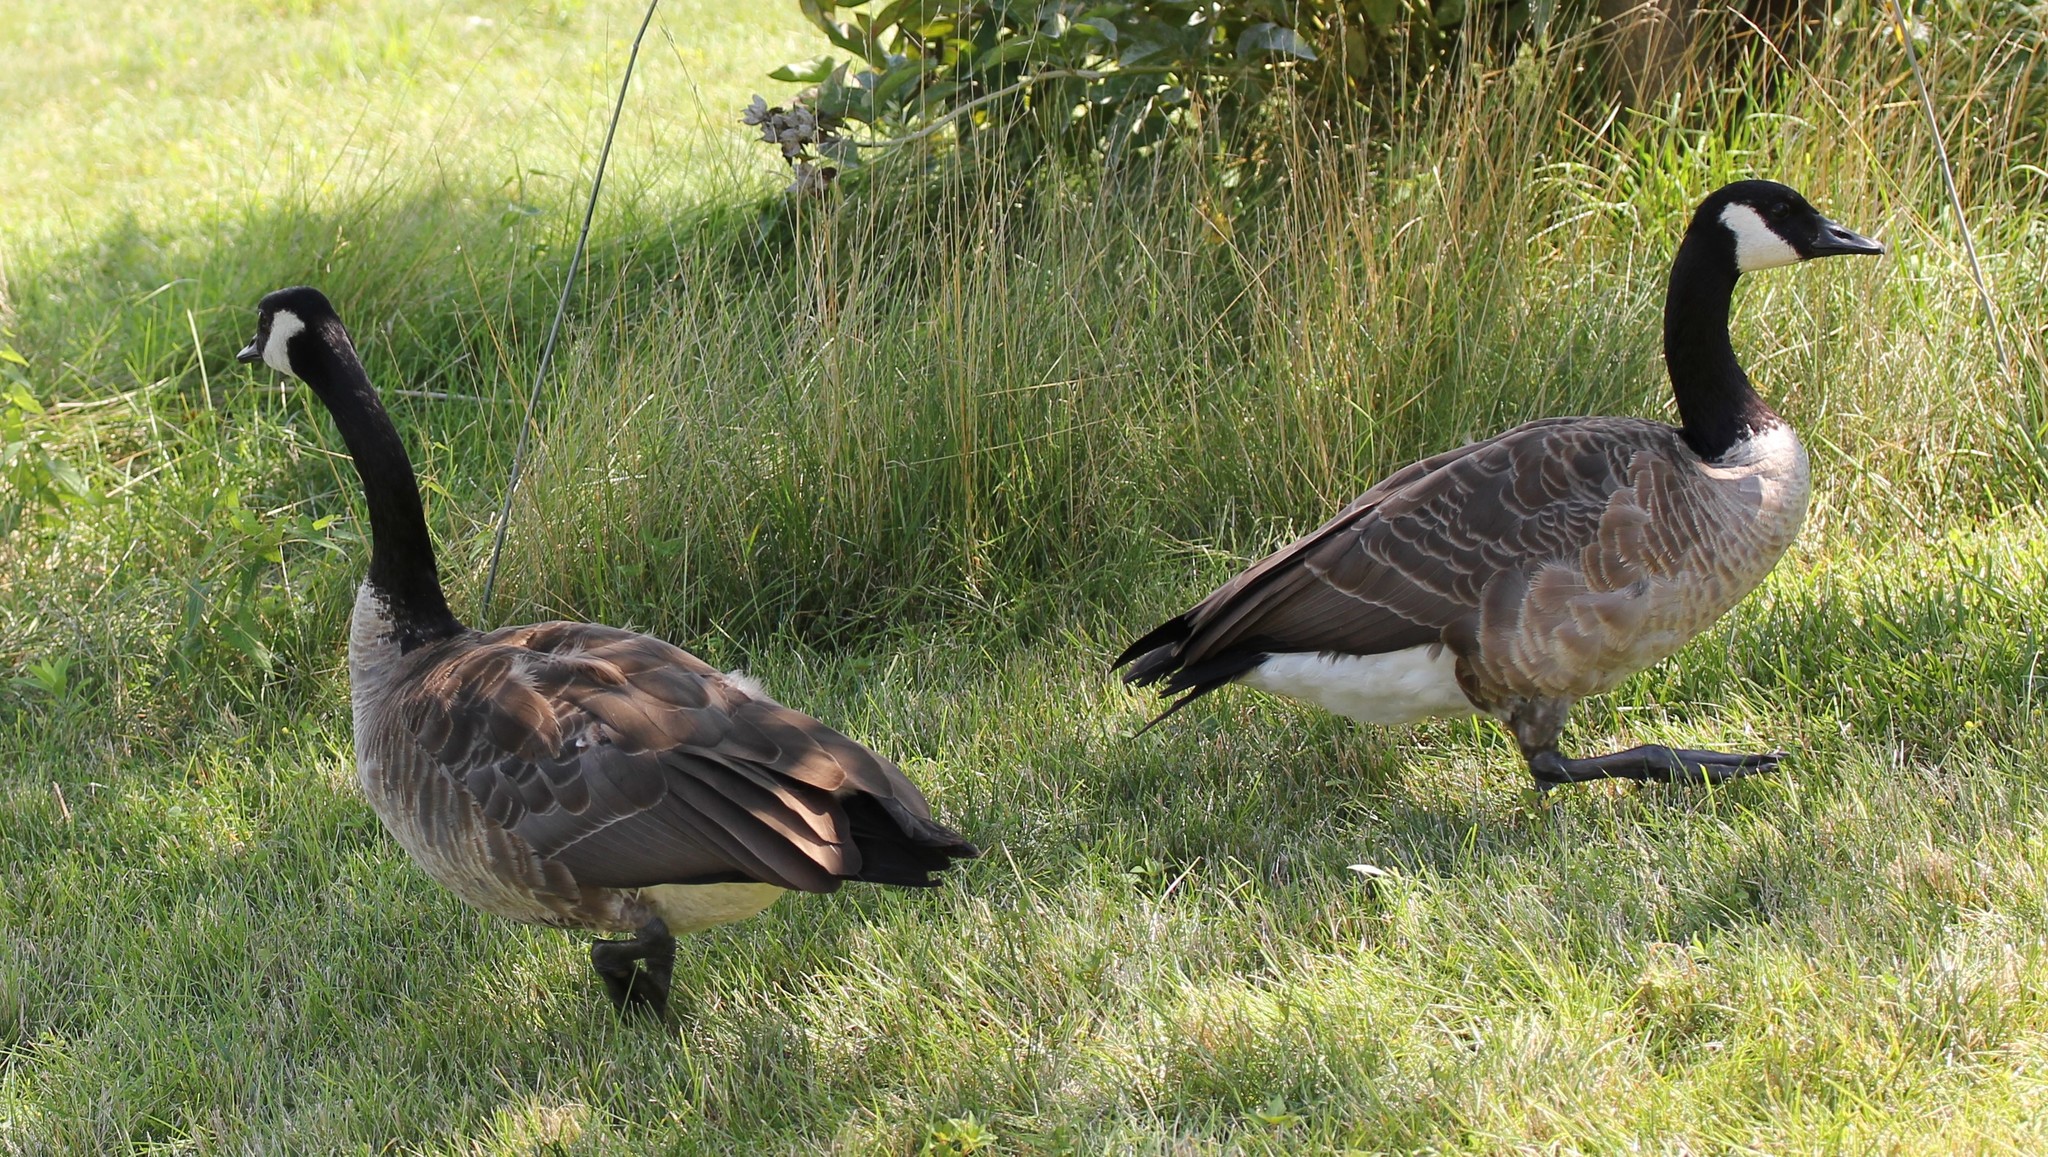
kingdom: Animalia
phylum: Chordata
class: Aves
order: Anseriformes
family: Anatidae
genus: Branta
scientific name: Branta canadensis
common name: Canada goose
